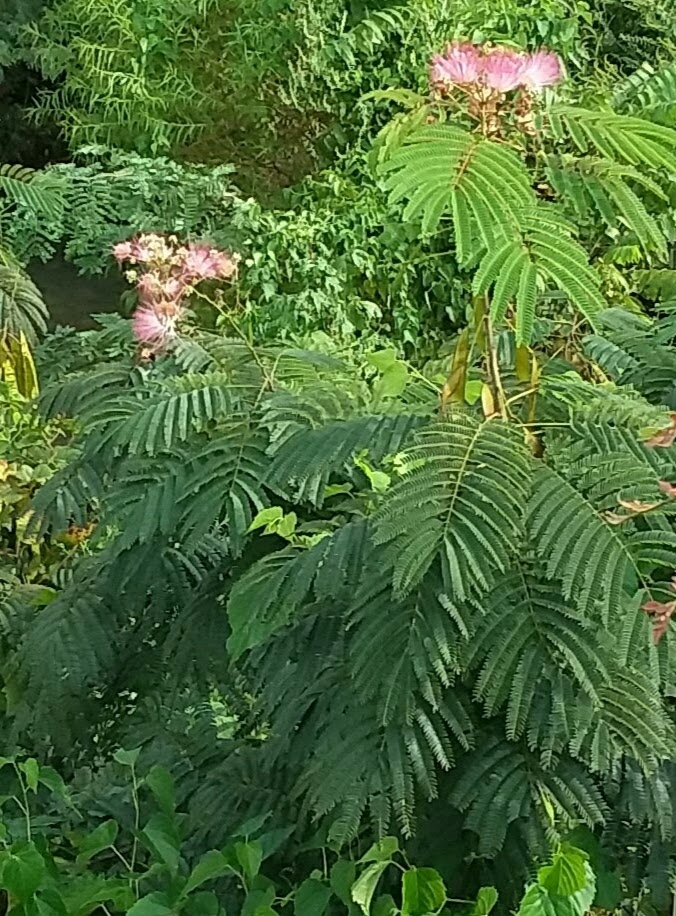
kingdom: Plantae
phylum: Tracheophyta
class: Magnoliopsida
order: Fabales
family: Fabaceae
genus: Albizia
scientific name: Albizia julibrissin
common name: Silktree
